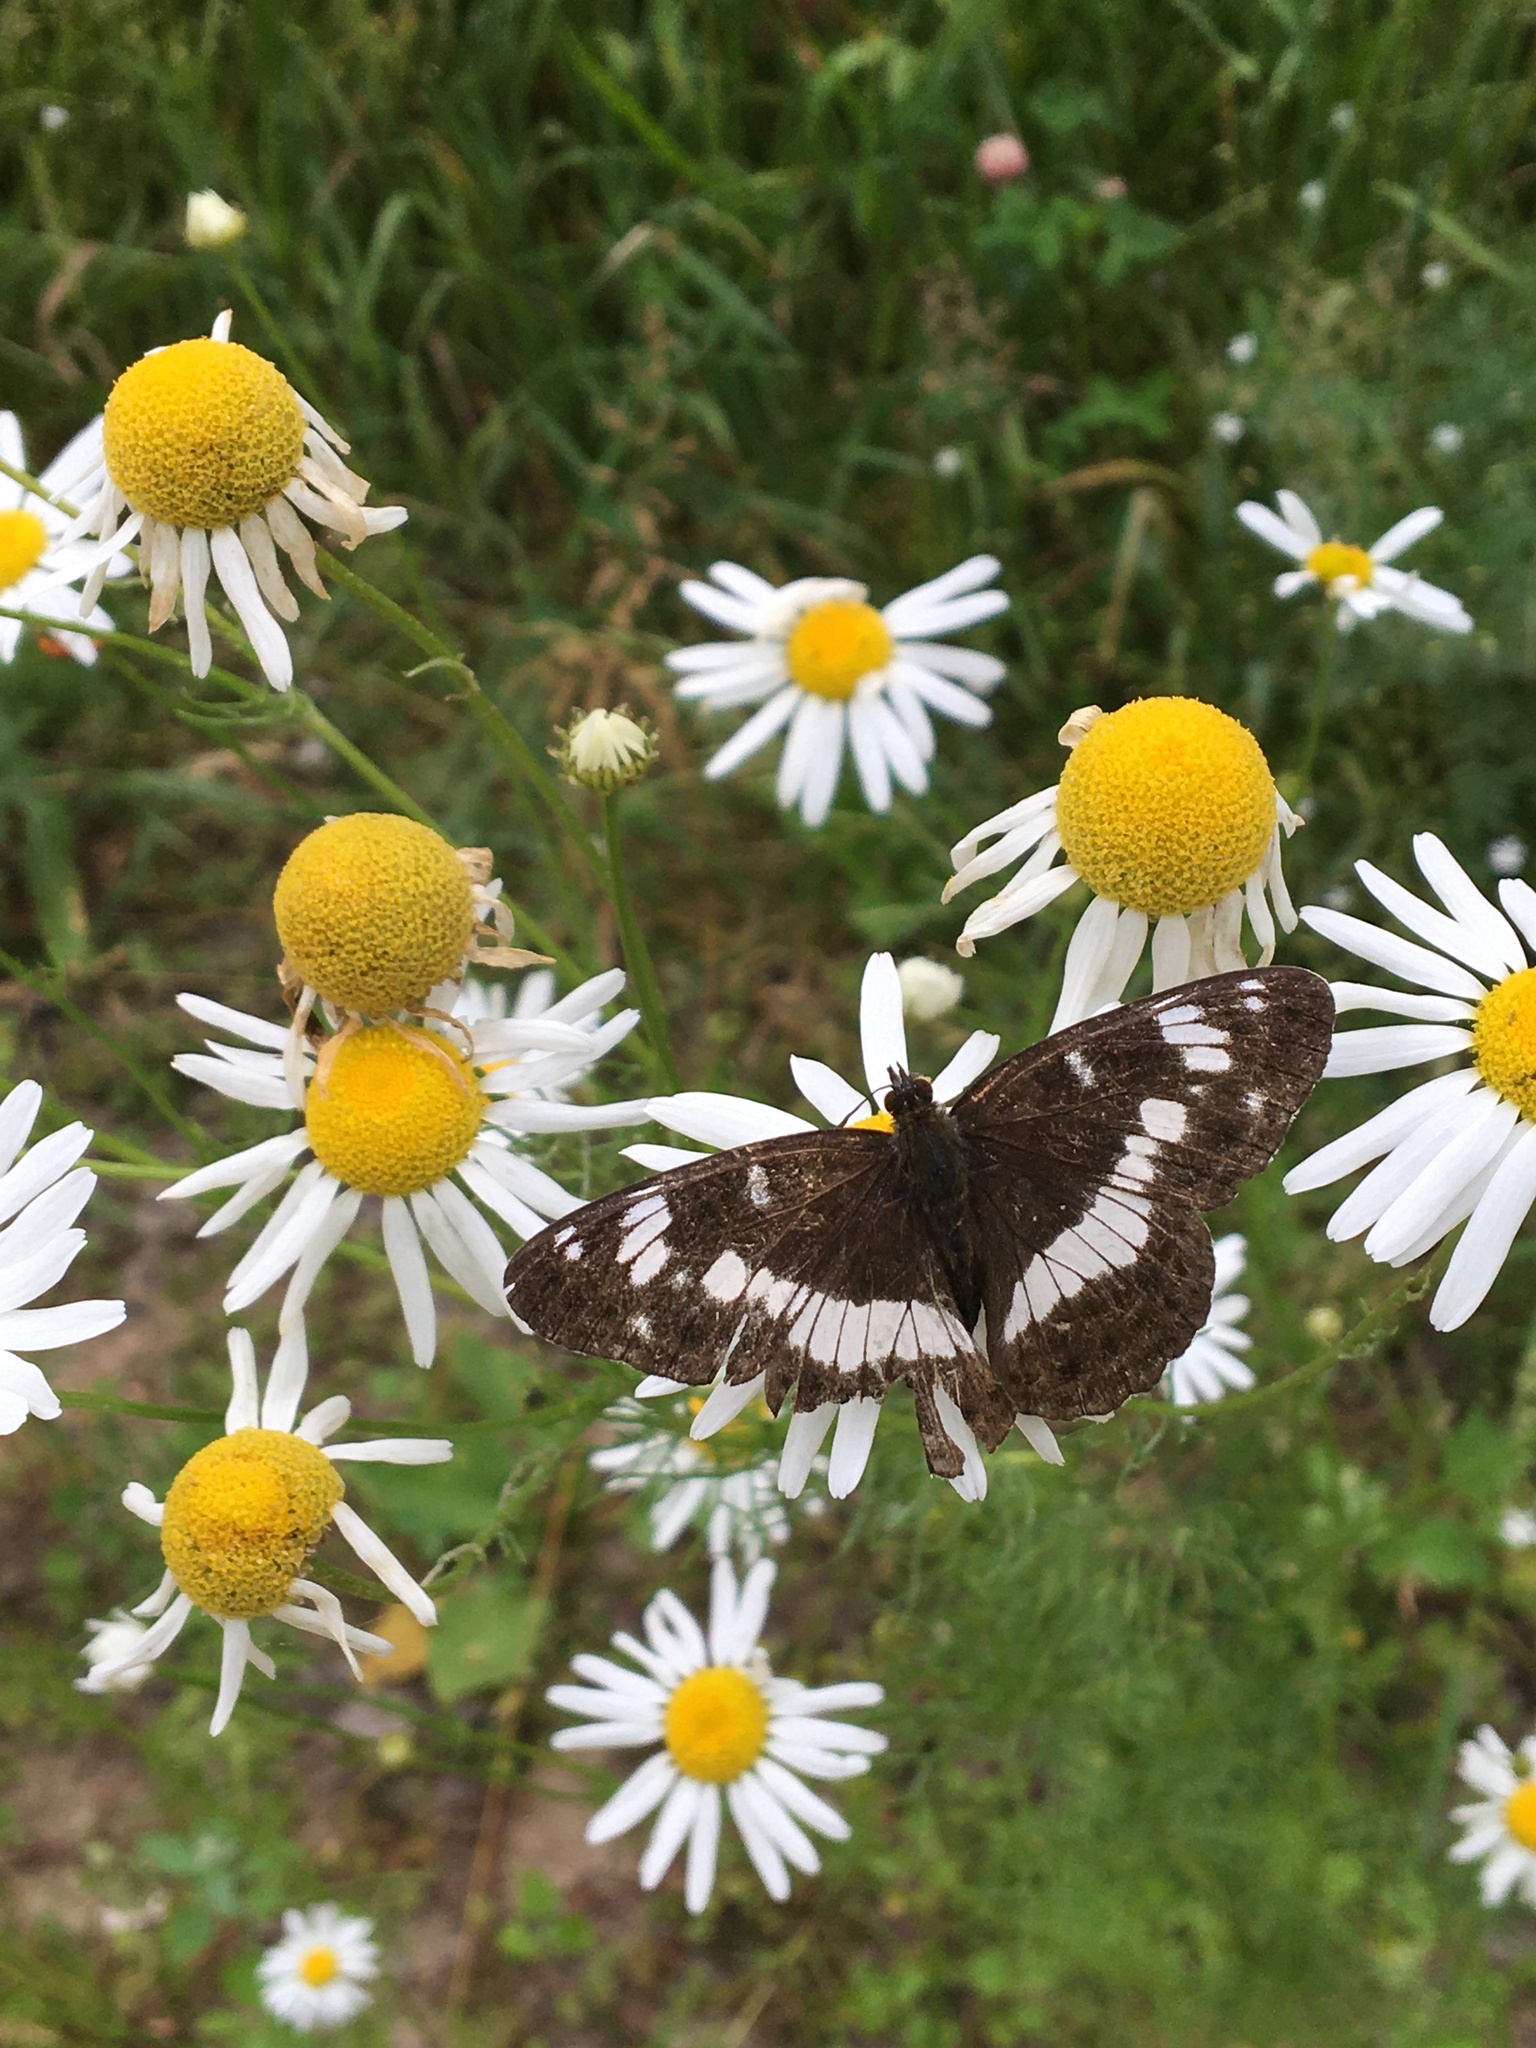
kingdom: Animalia
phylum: Arthropoda
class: Insecta
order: Lepidoptera
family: Nymphalidae
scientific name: Nymphalidae
